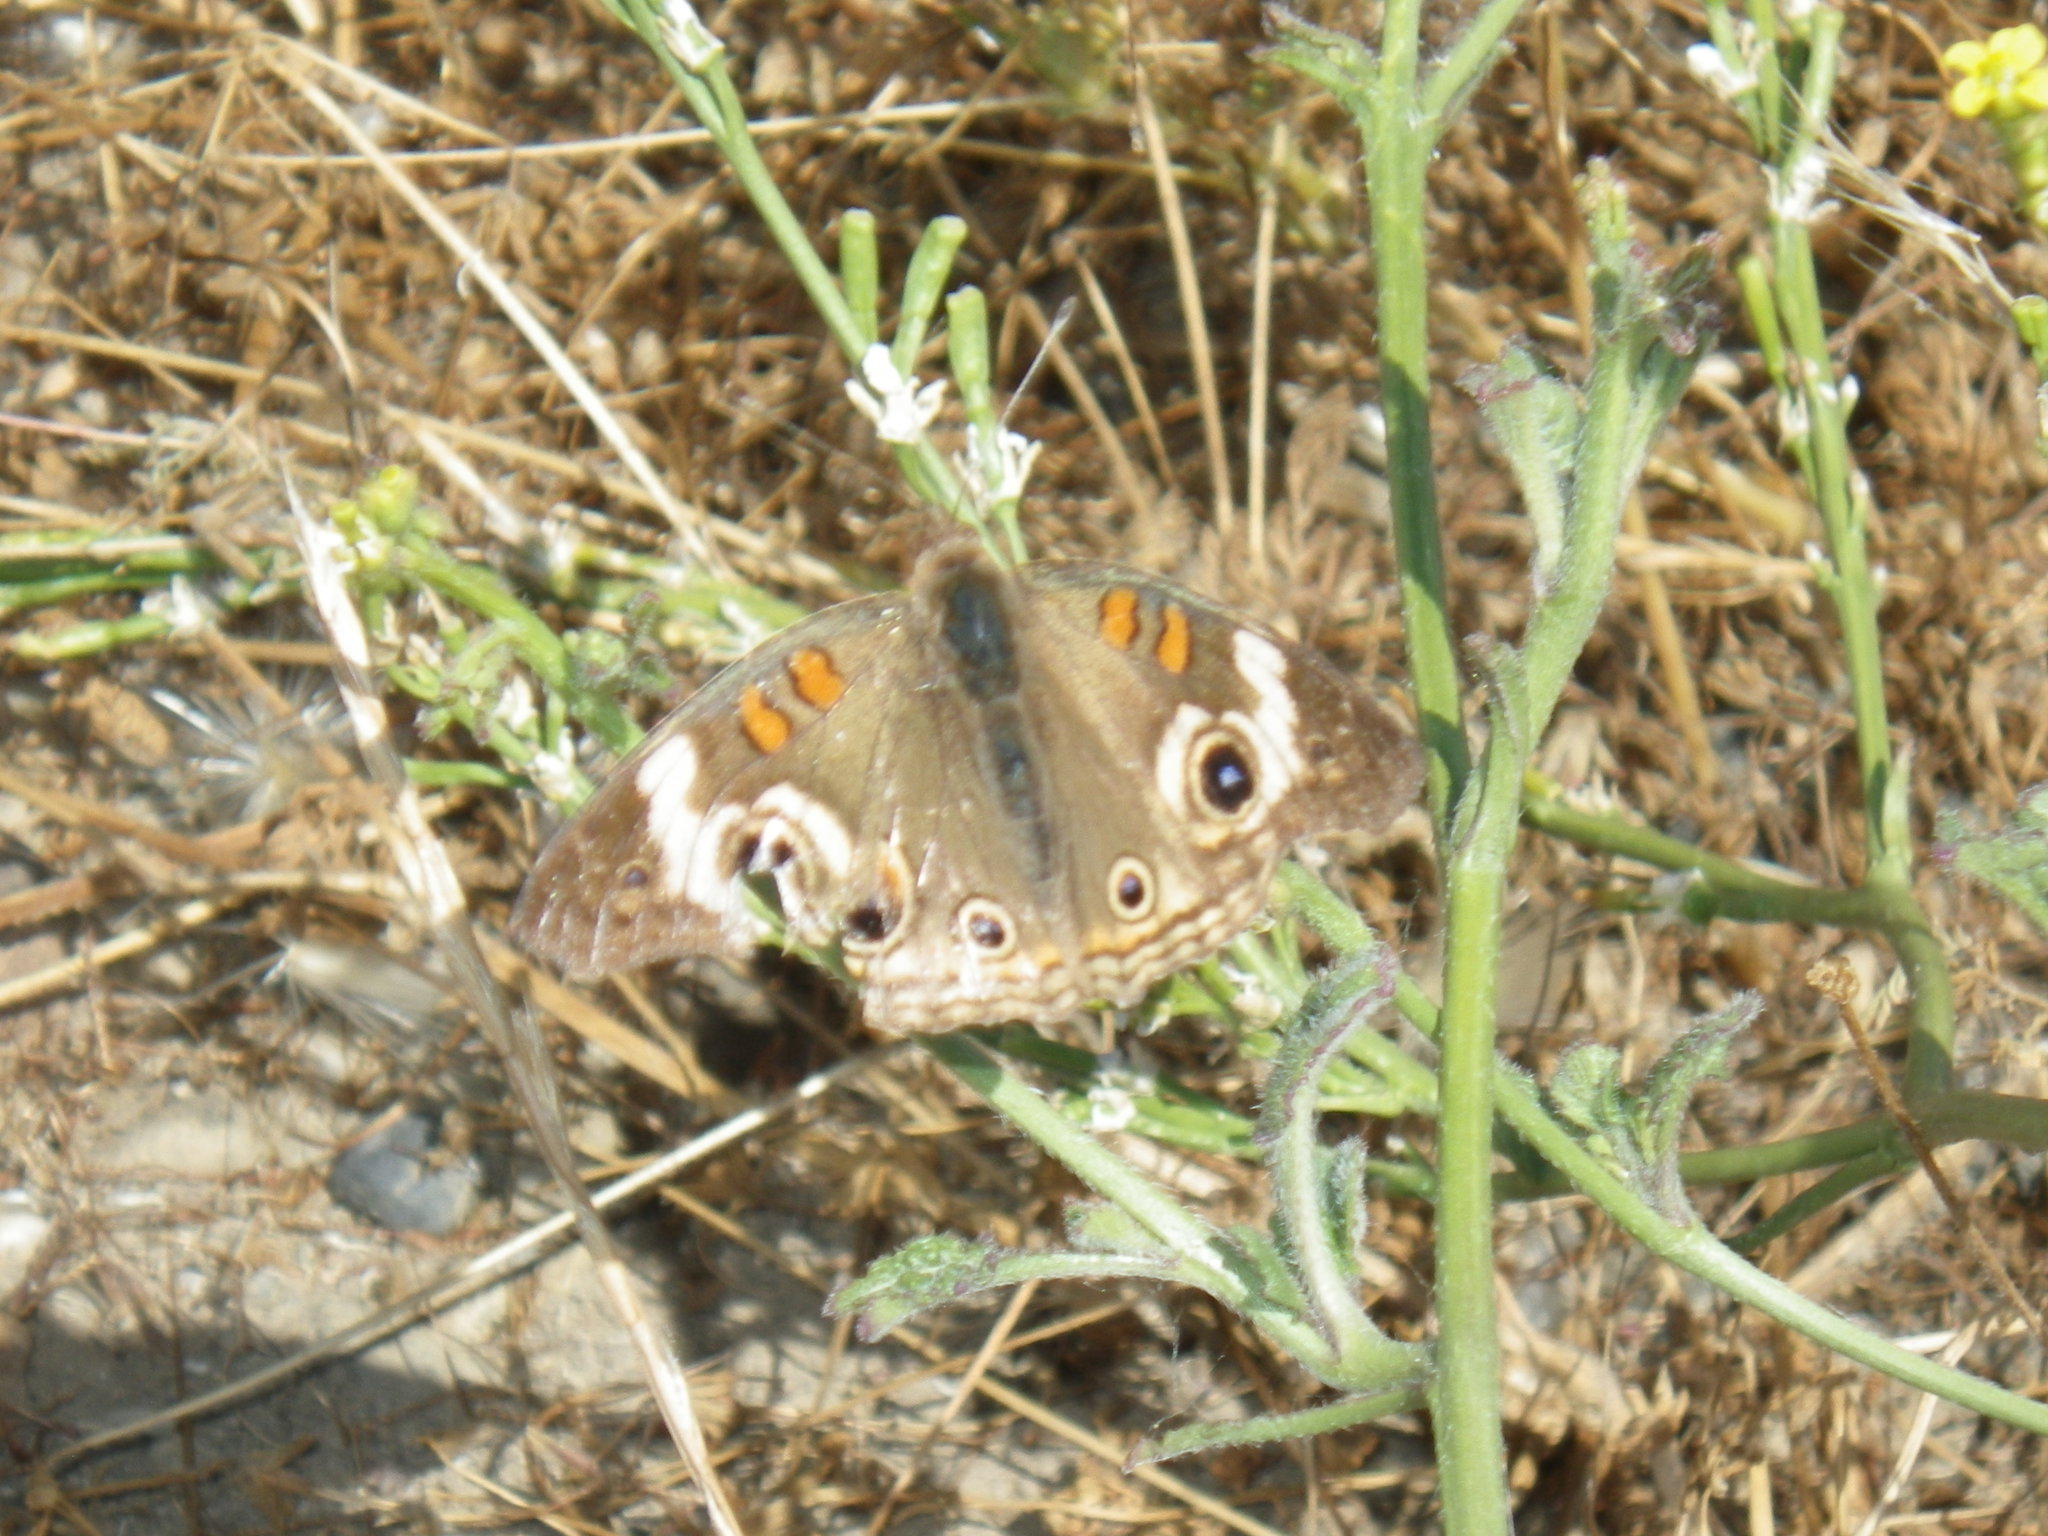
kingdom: Animalia
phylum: Arthropoda
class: Insecta
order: Lepidoptera
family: Nymphalidae
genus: Junonia
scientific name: Junonia grisea
